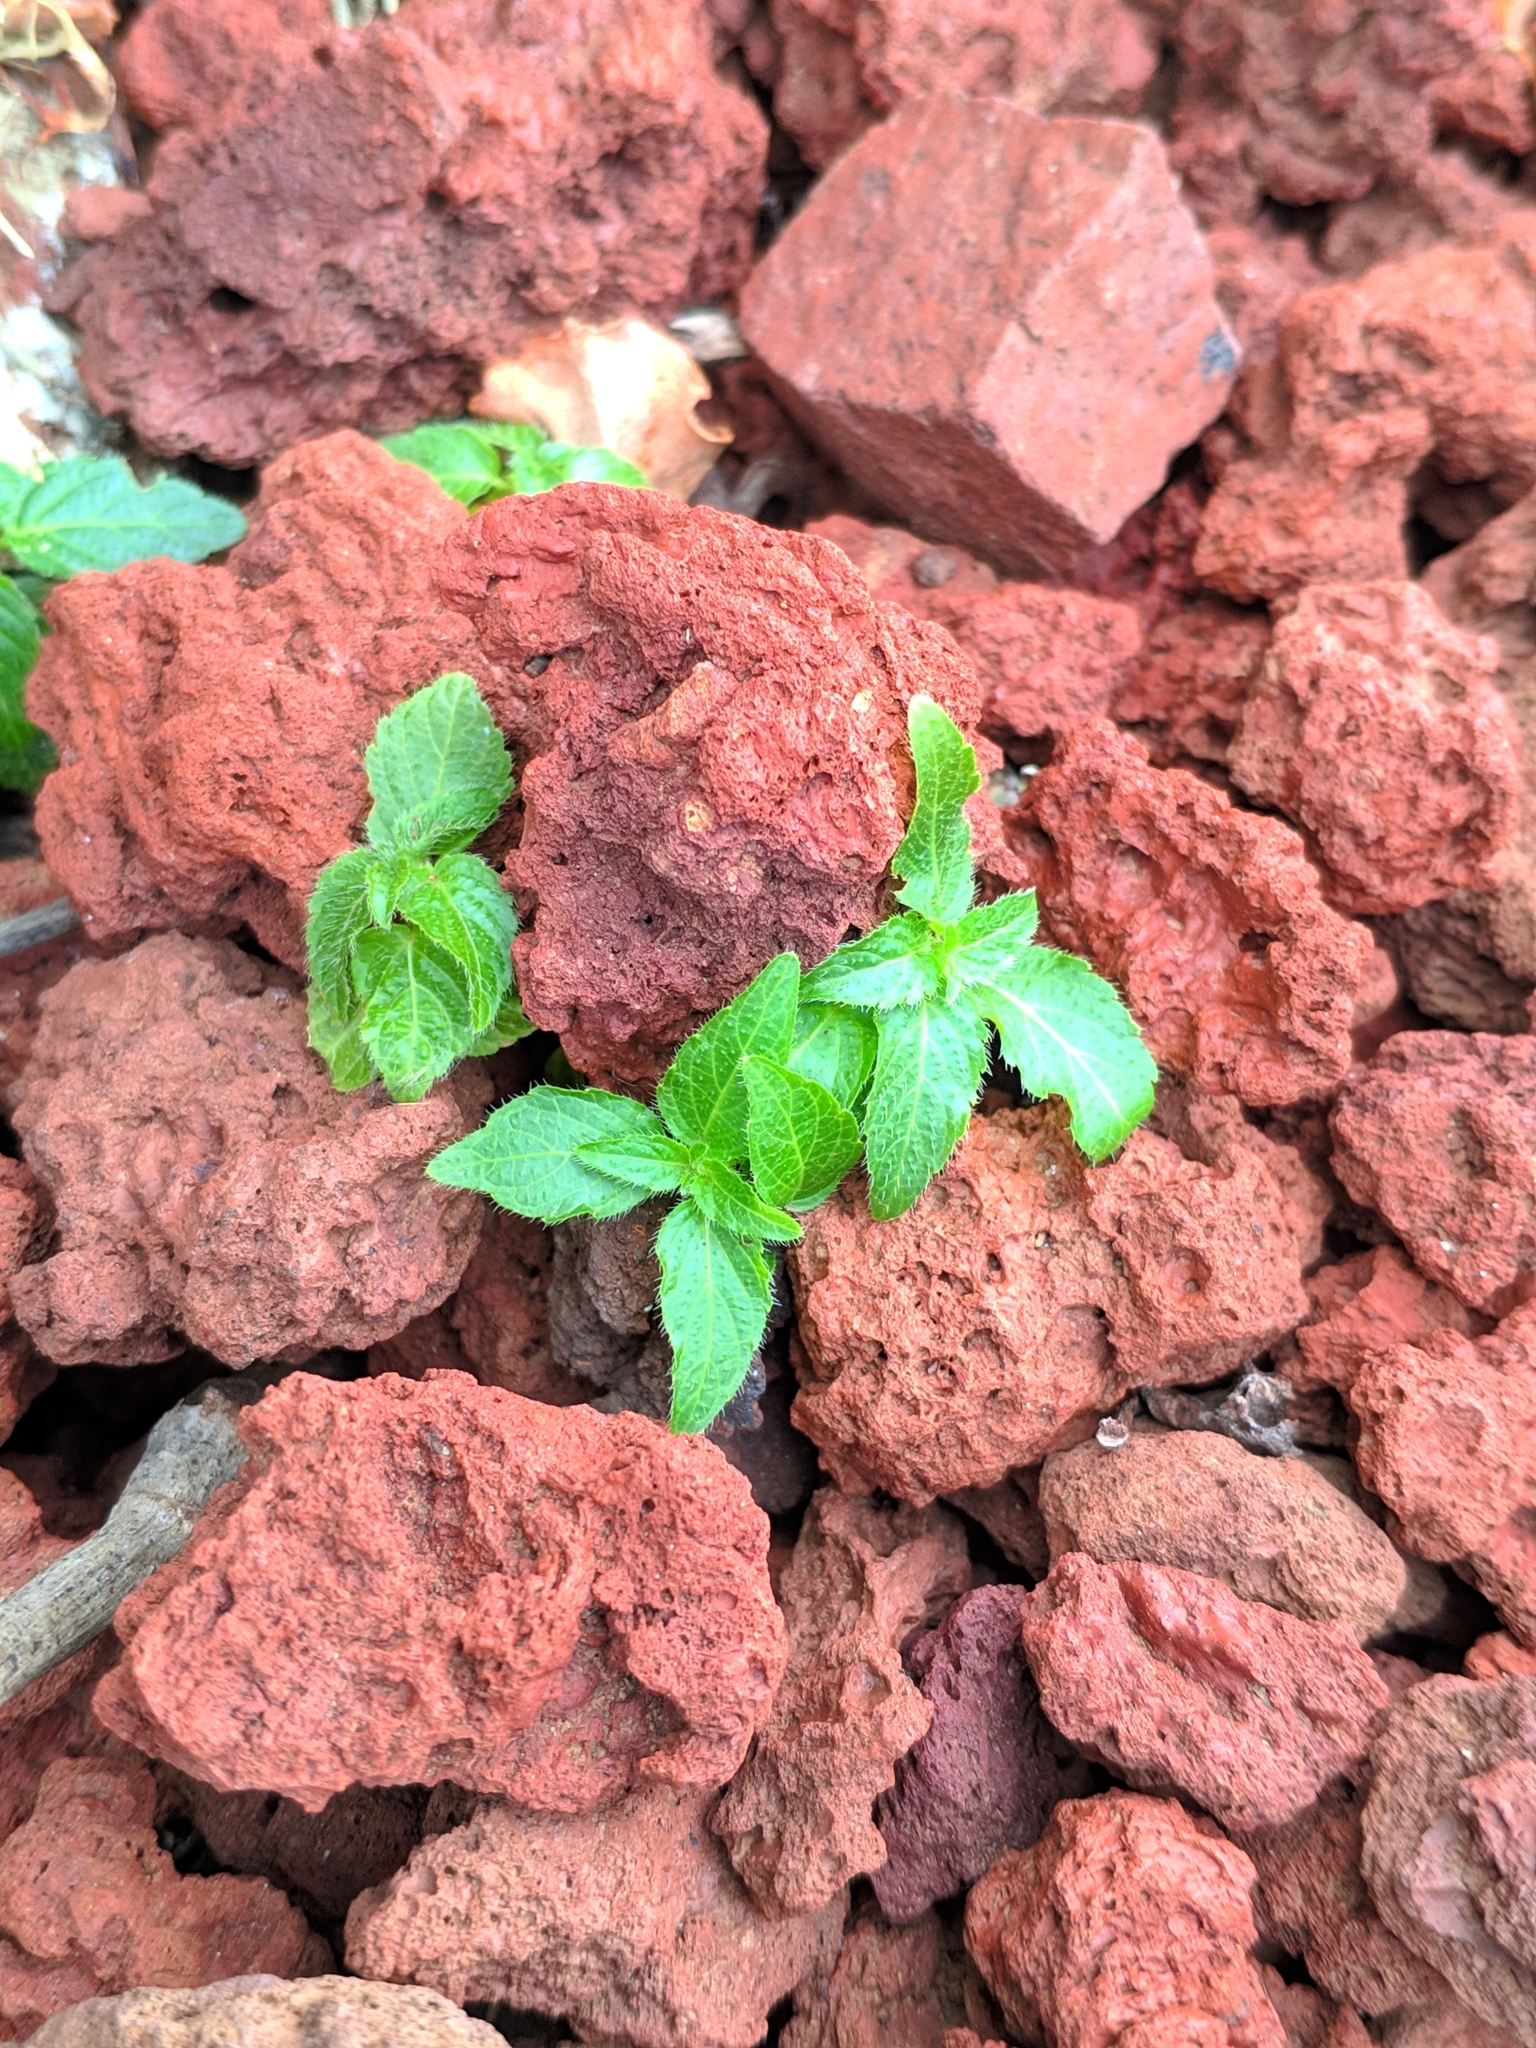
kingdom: Plantae
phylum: Tracheophyta
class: Magnoliopsida
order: Malpighiales
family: Euphorbiaceae
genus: Mercurialis
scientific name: Mercurialis annua
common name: Annual mercury
